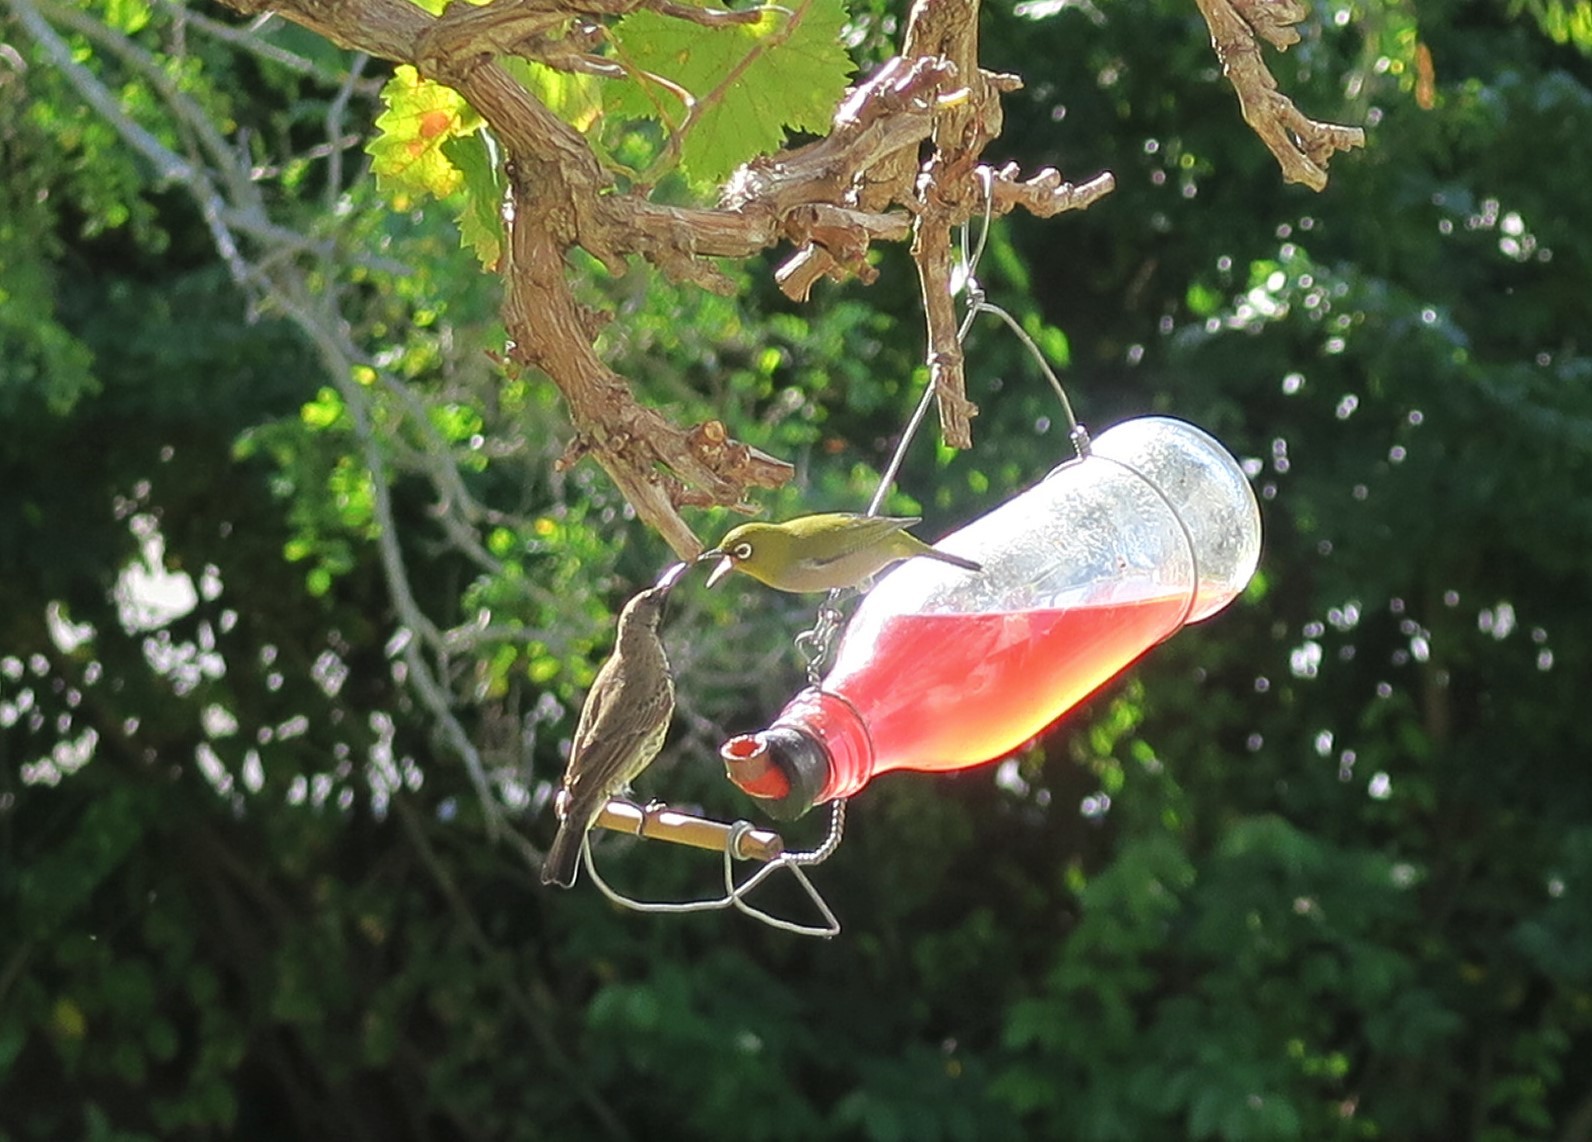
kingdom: Animalia
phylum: Chordata
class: Aves
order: Passeriformes
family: Zosteropidae
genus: Zosterops
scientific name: Zosterops virens
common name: Cape white-eye
